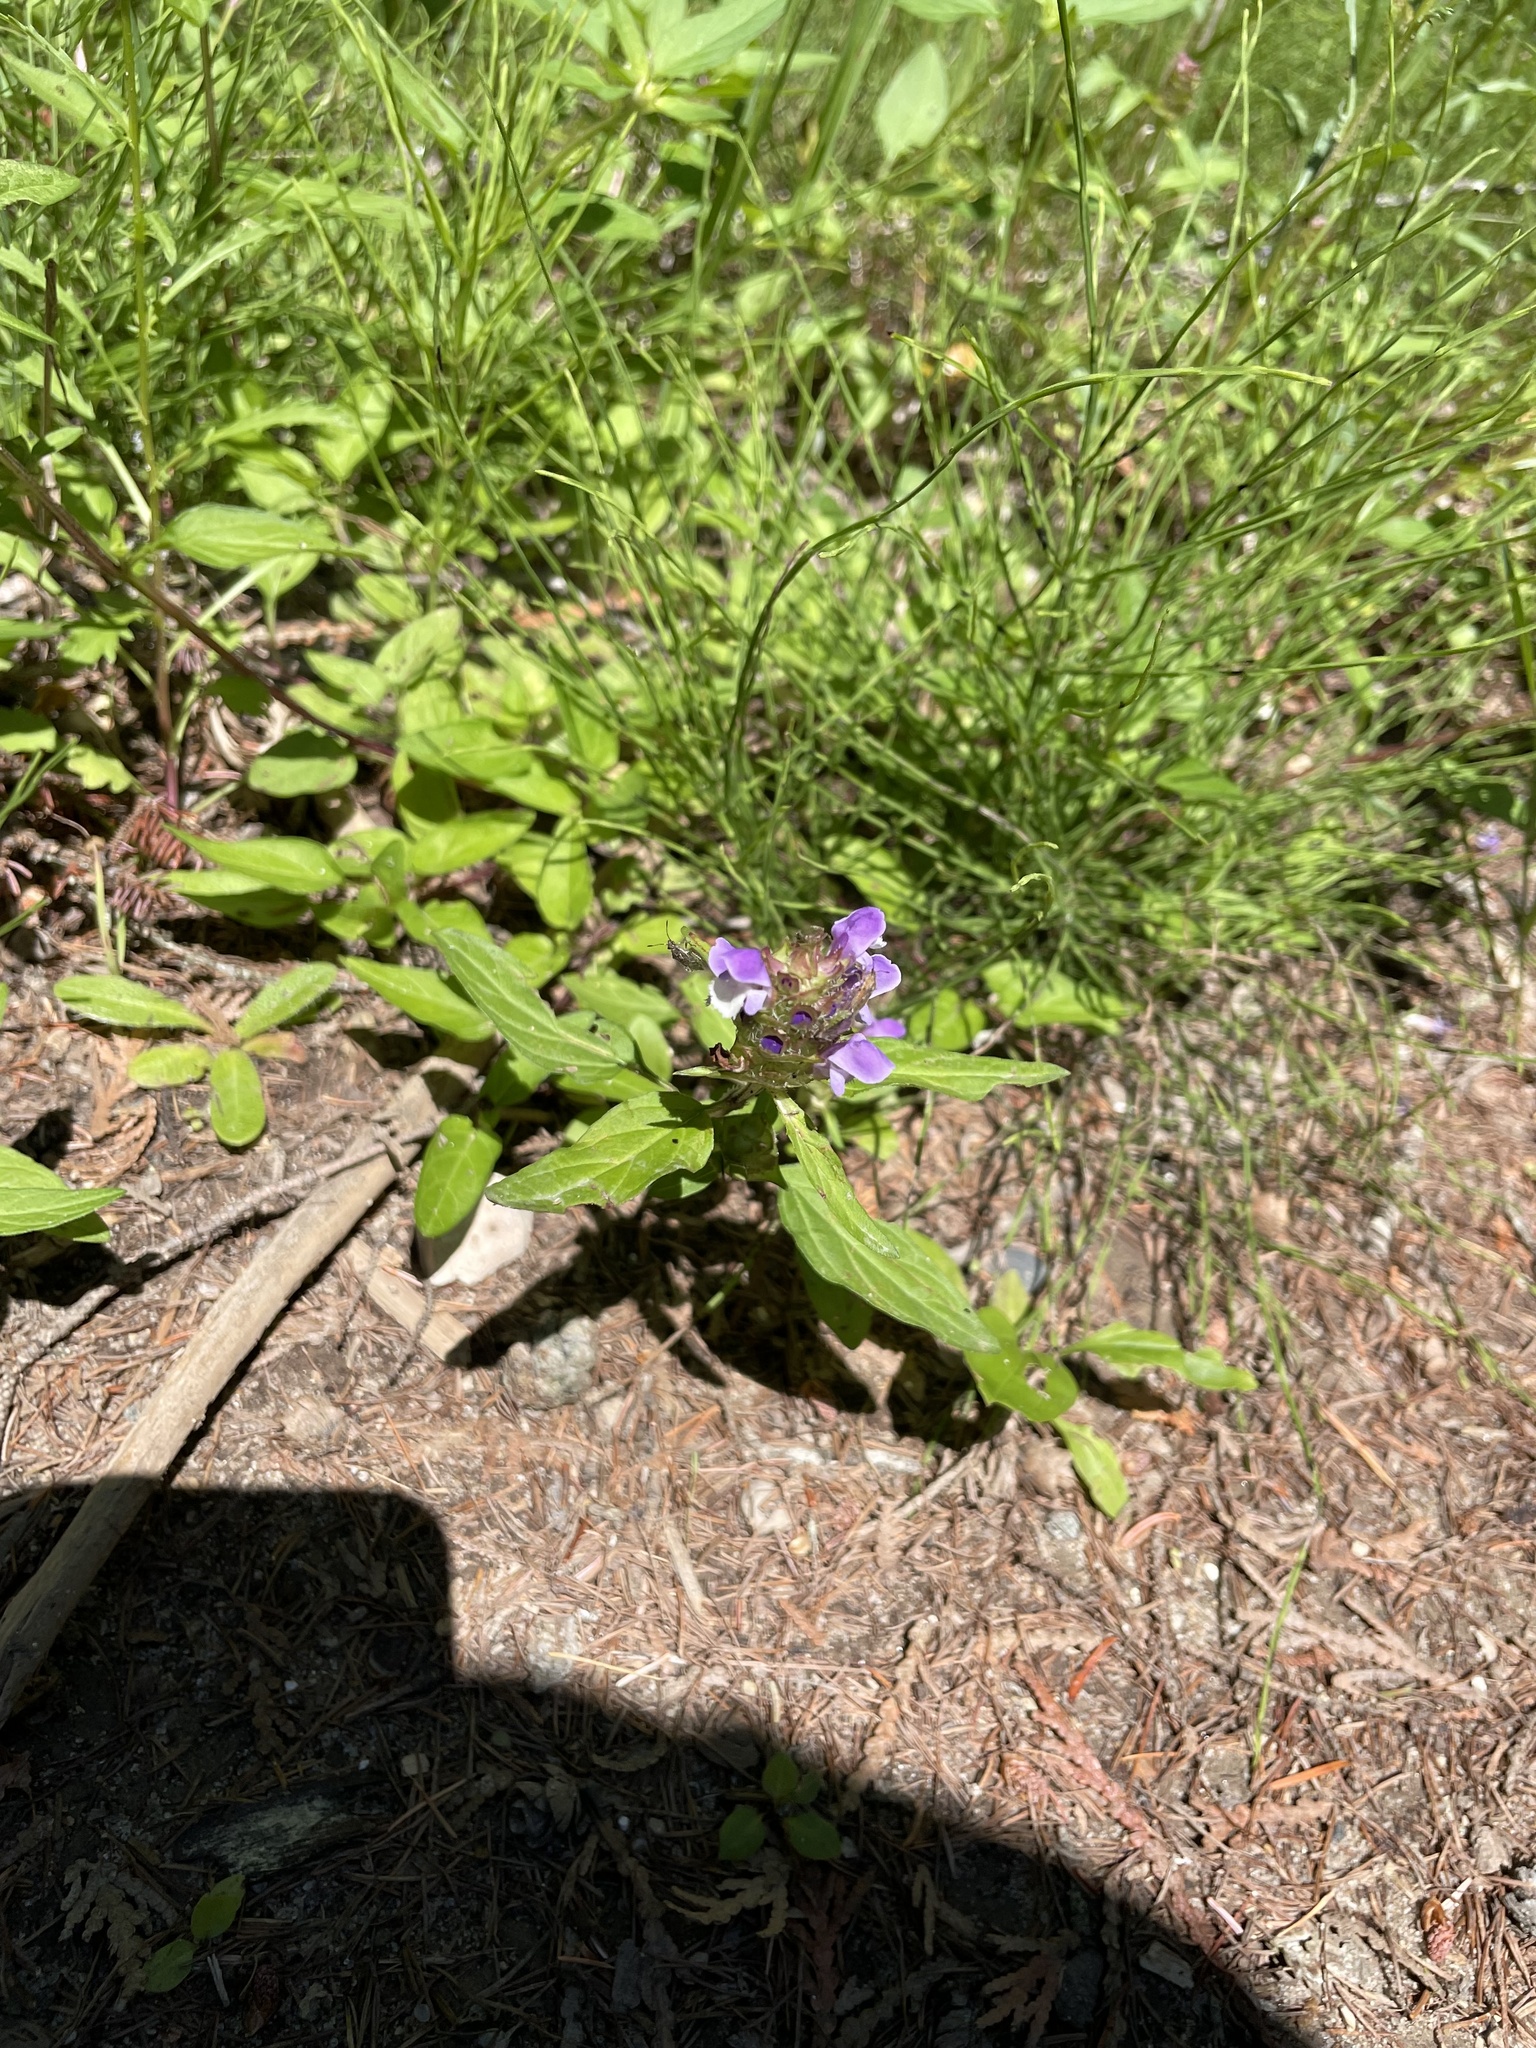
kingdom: Plantae
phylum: Tracheophyta
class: Magnoliopsida
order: Lamiales
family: Lamiaceae
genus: Prunella
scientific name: Prunella vulgaris
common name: Heal-all
